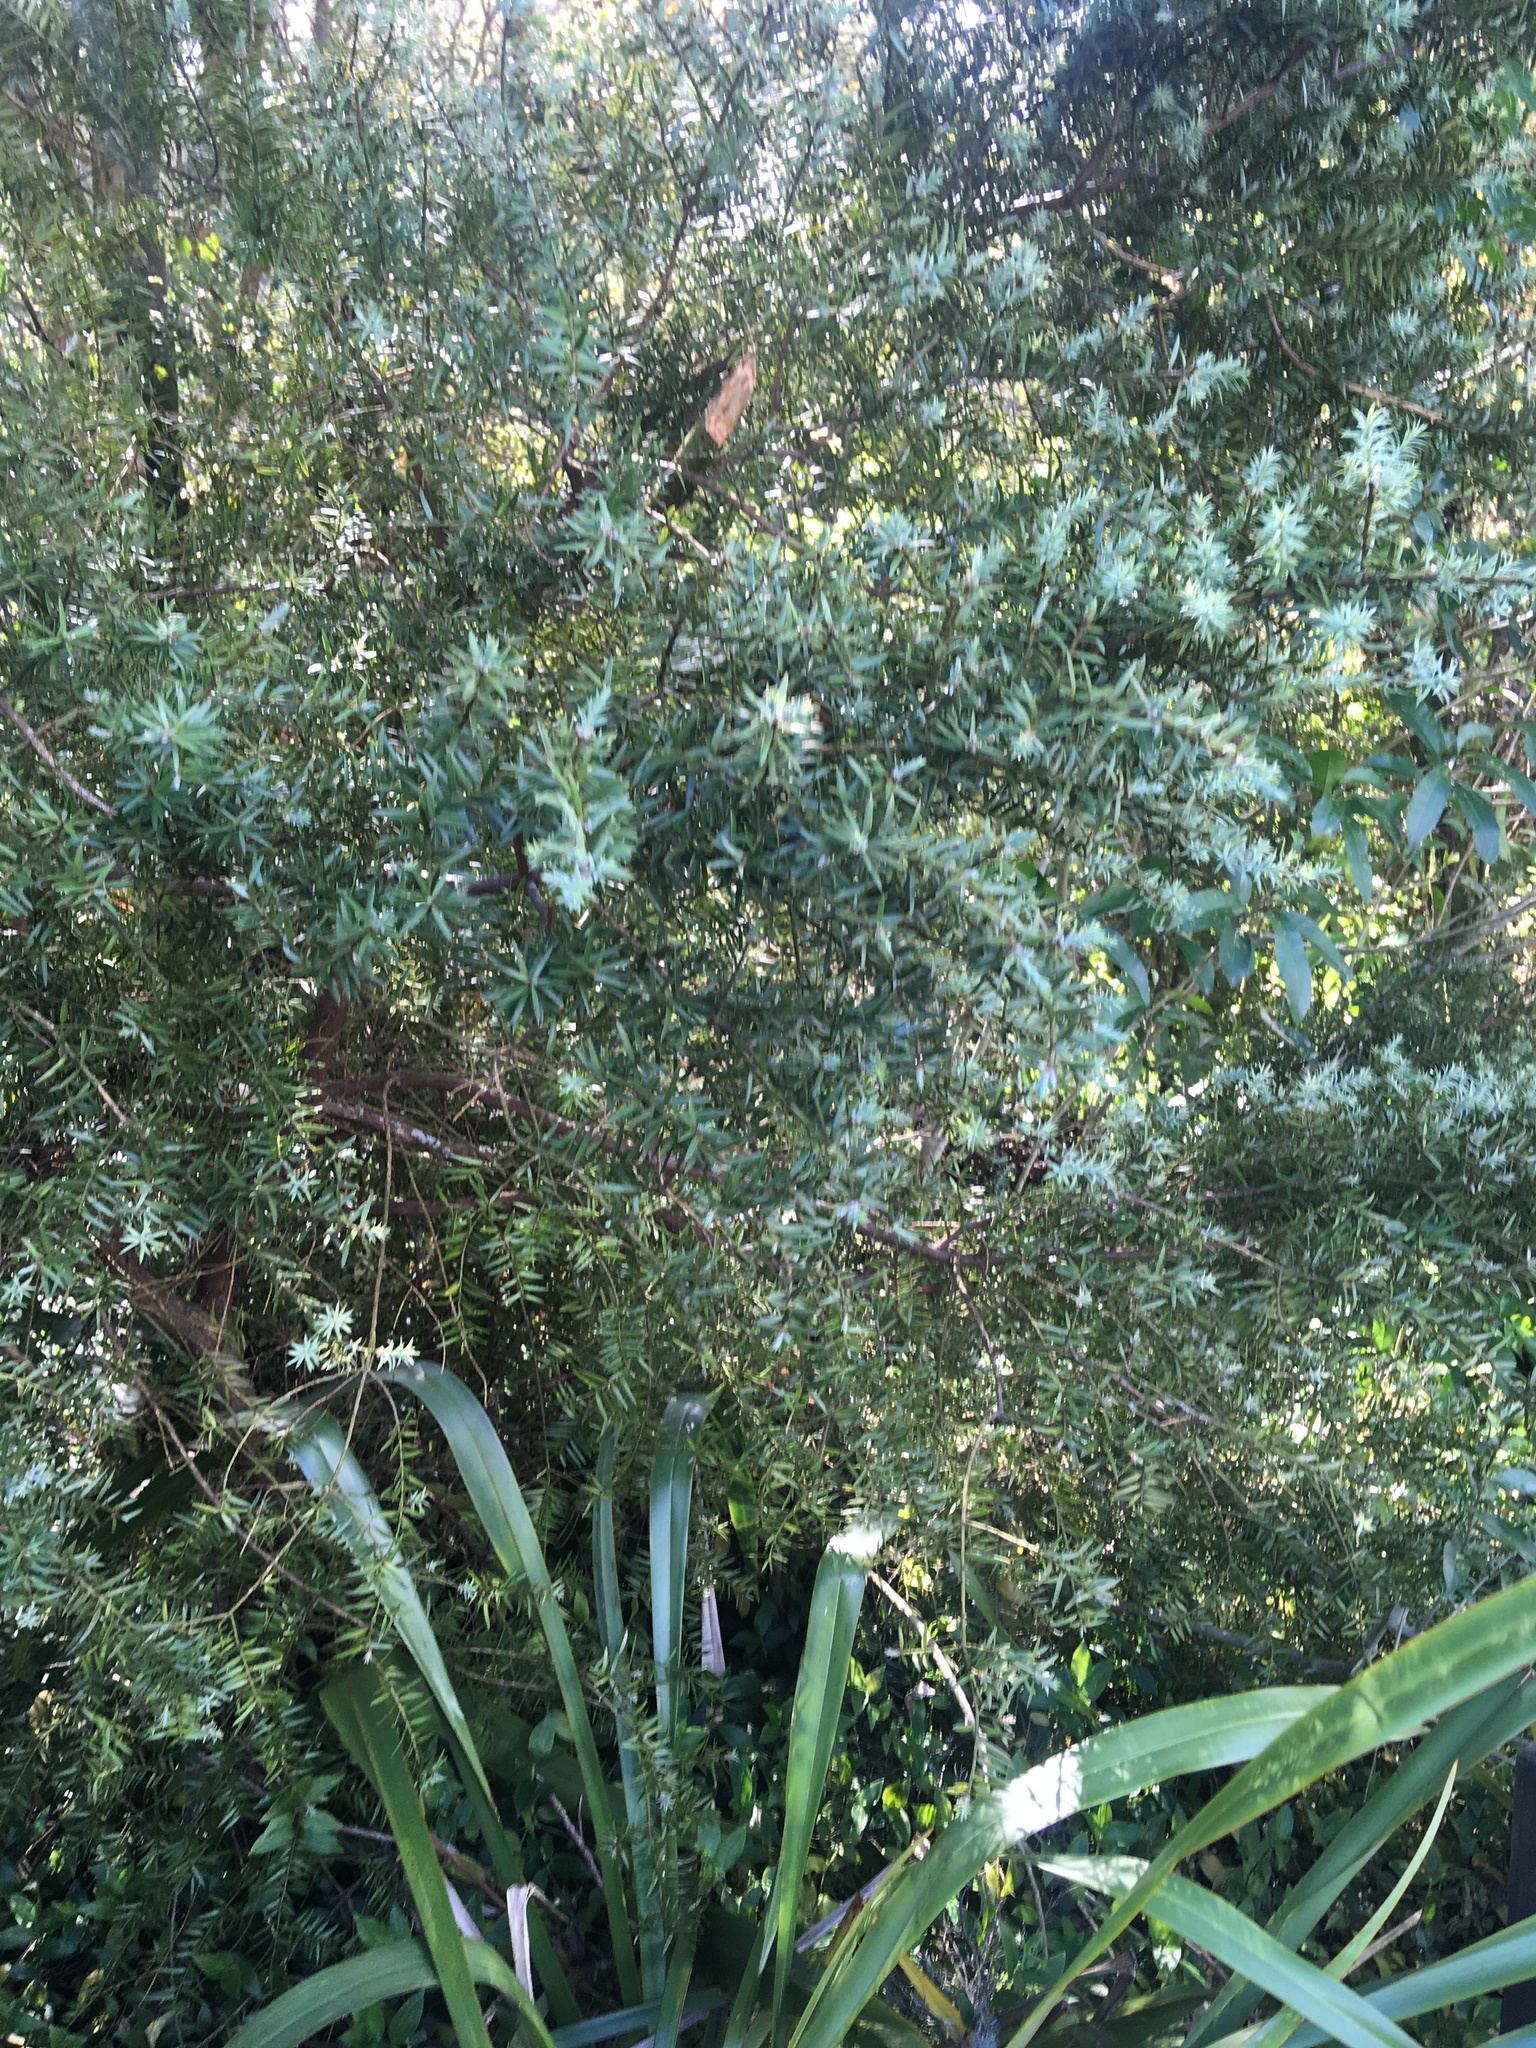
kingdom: Plantae
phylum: Tracheophyta
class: Liliopsida
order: Asparagales
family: Asphodelaceae
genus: Phormium
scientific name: Phormium tenax
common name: New zealand flax
